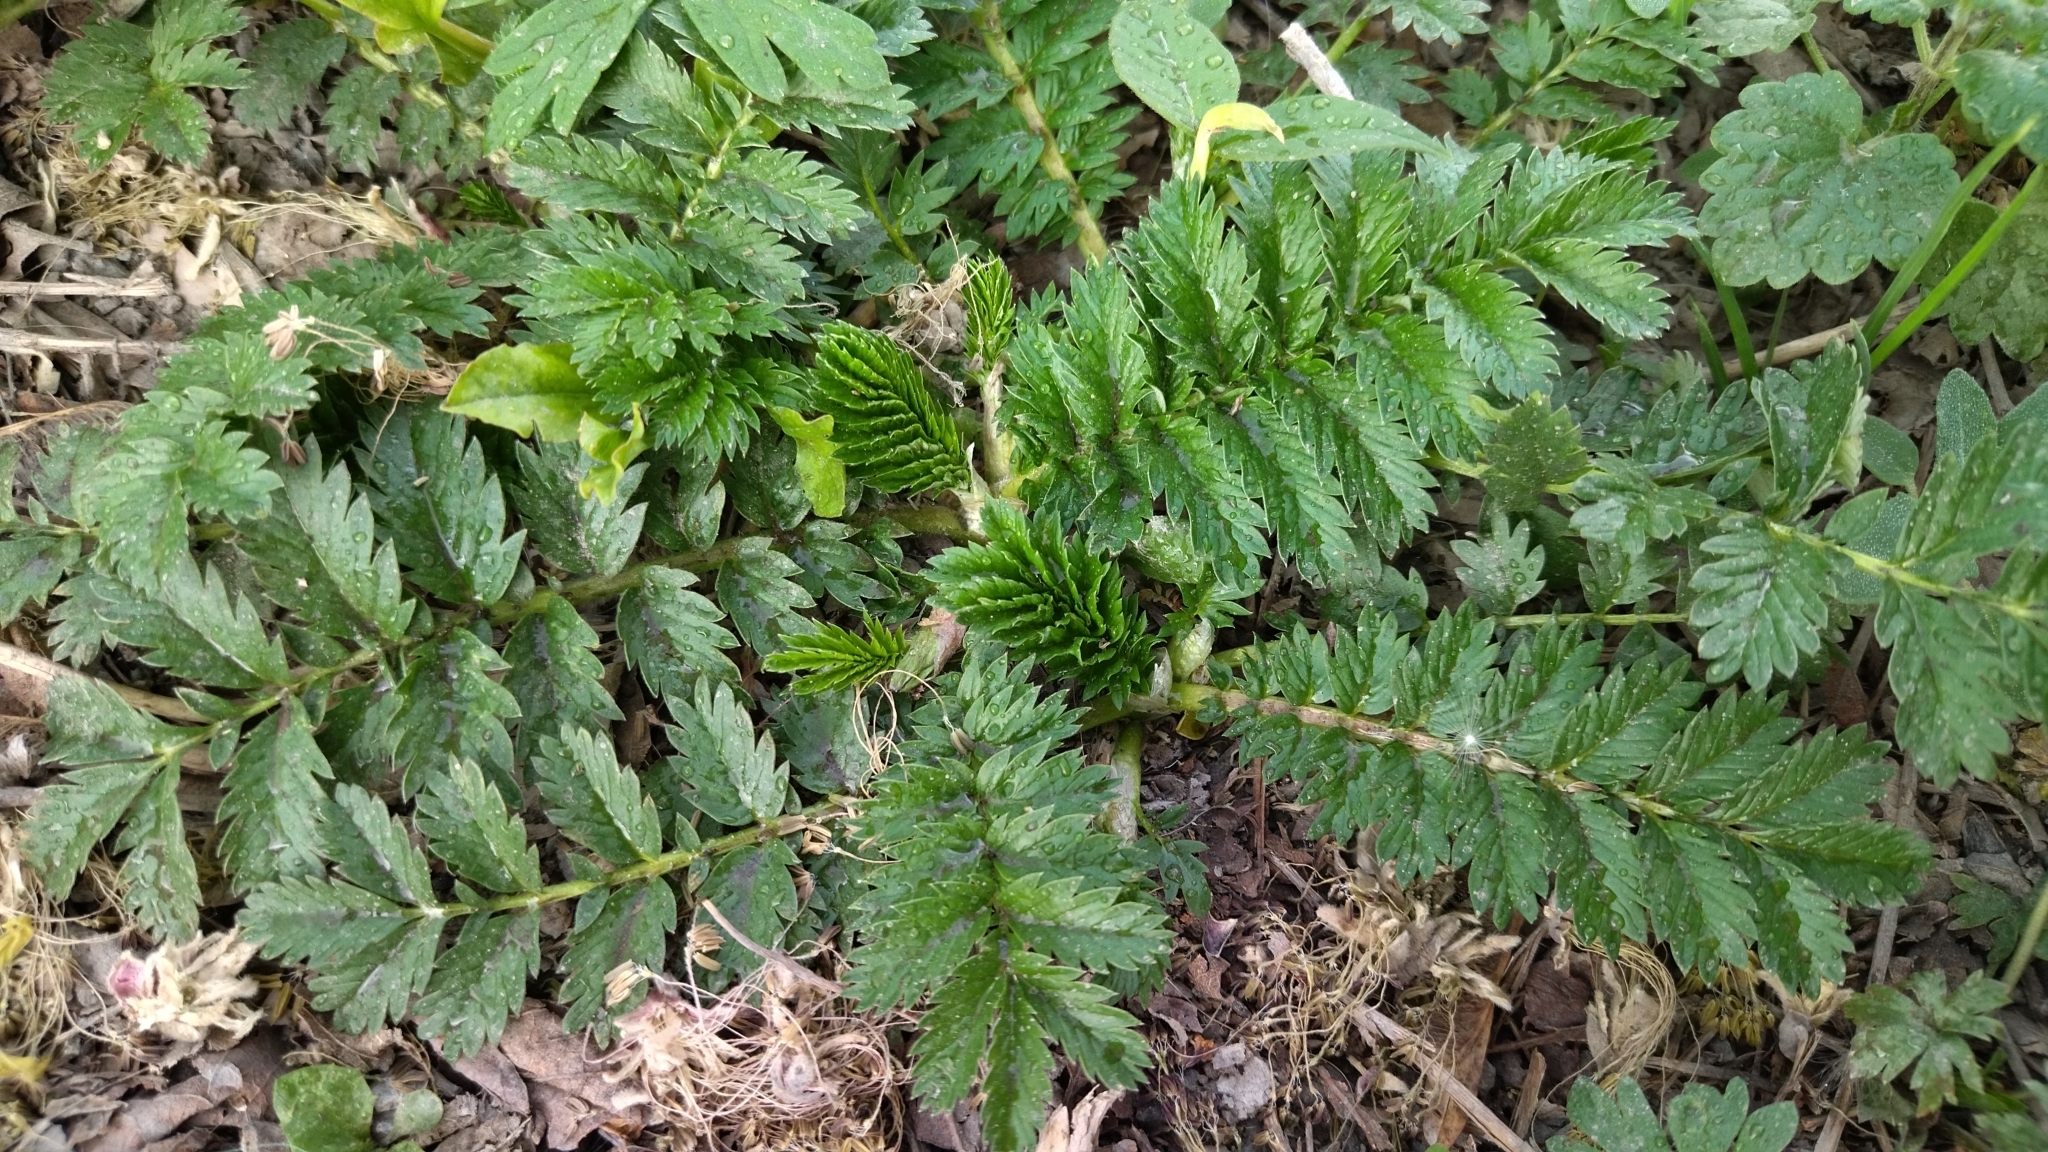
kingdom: Plantae
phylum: Tracheophyta
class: Magnoliopsida
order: Rosales
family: Rosaceae
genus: Argentina
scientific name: Argentina anserina
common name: Common silverweed
